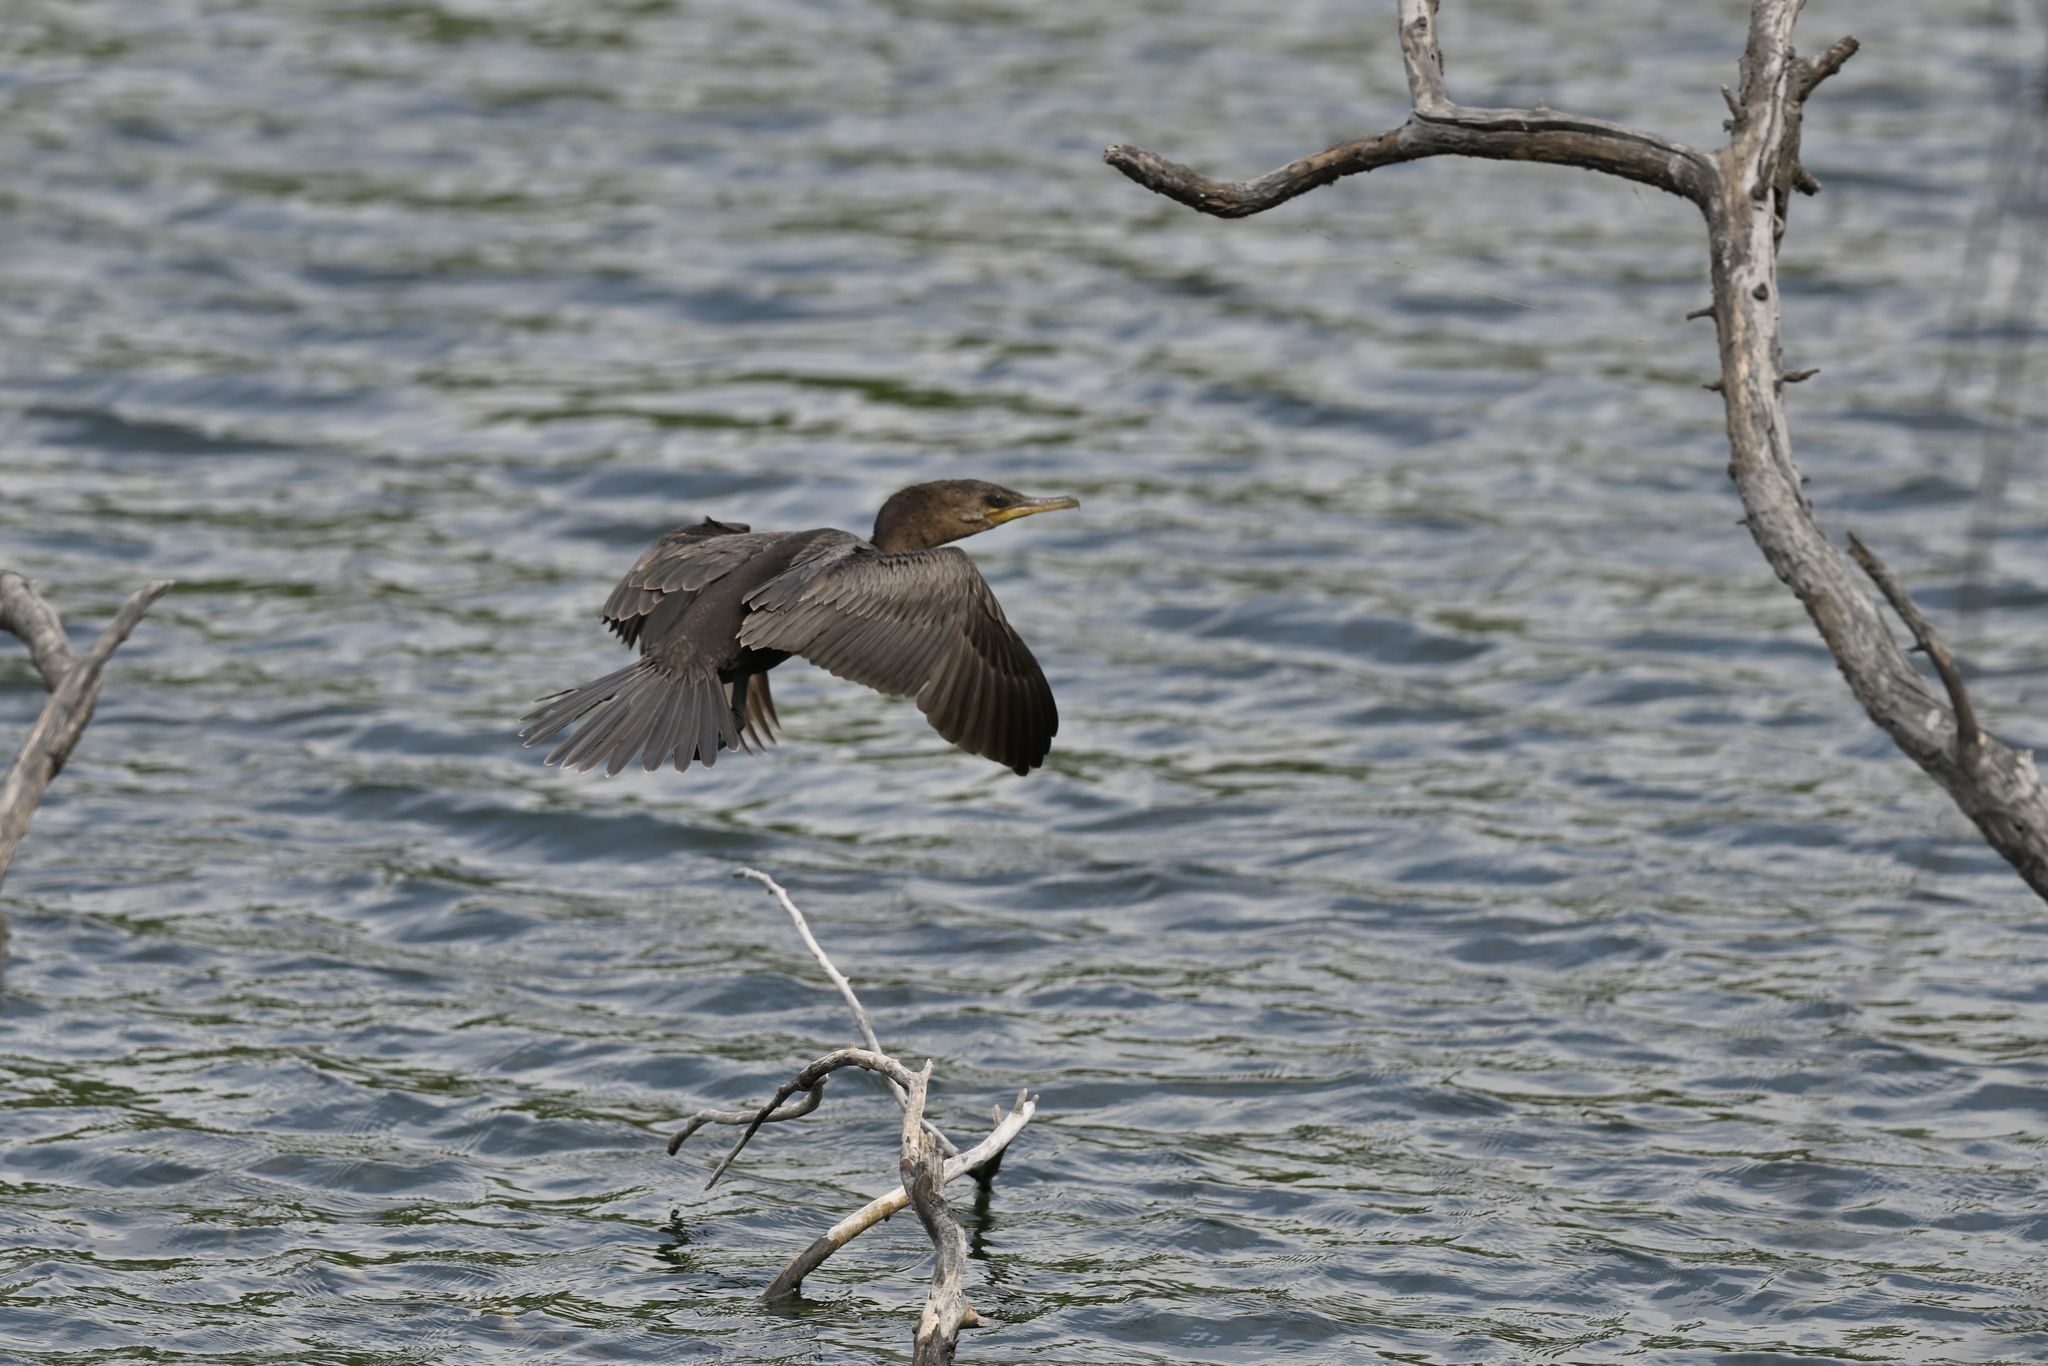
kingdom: Animalia
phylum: Chordata
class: Aves
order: Suliformes
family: Phalacrocoracidae
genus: Phalacrocorax
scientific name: Phalacrocorax brasilianus
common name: Neotropic cormorant
